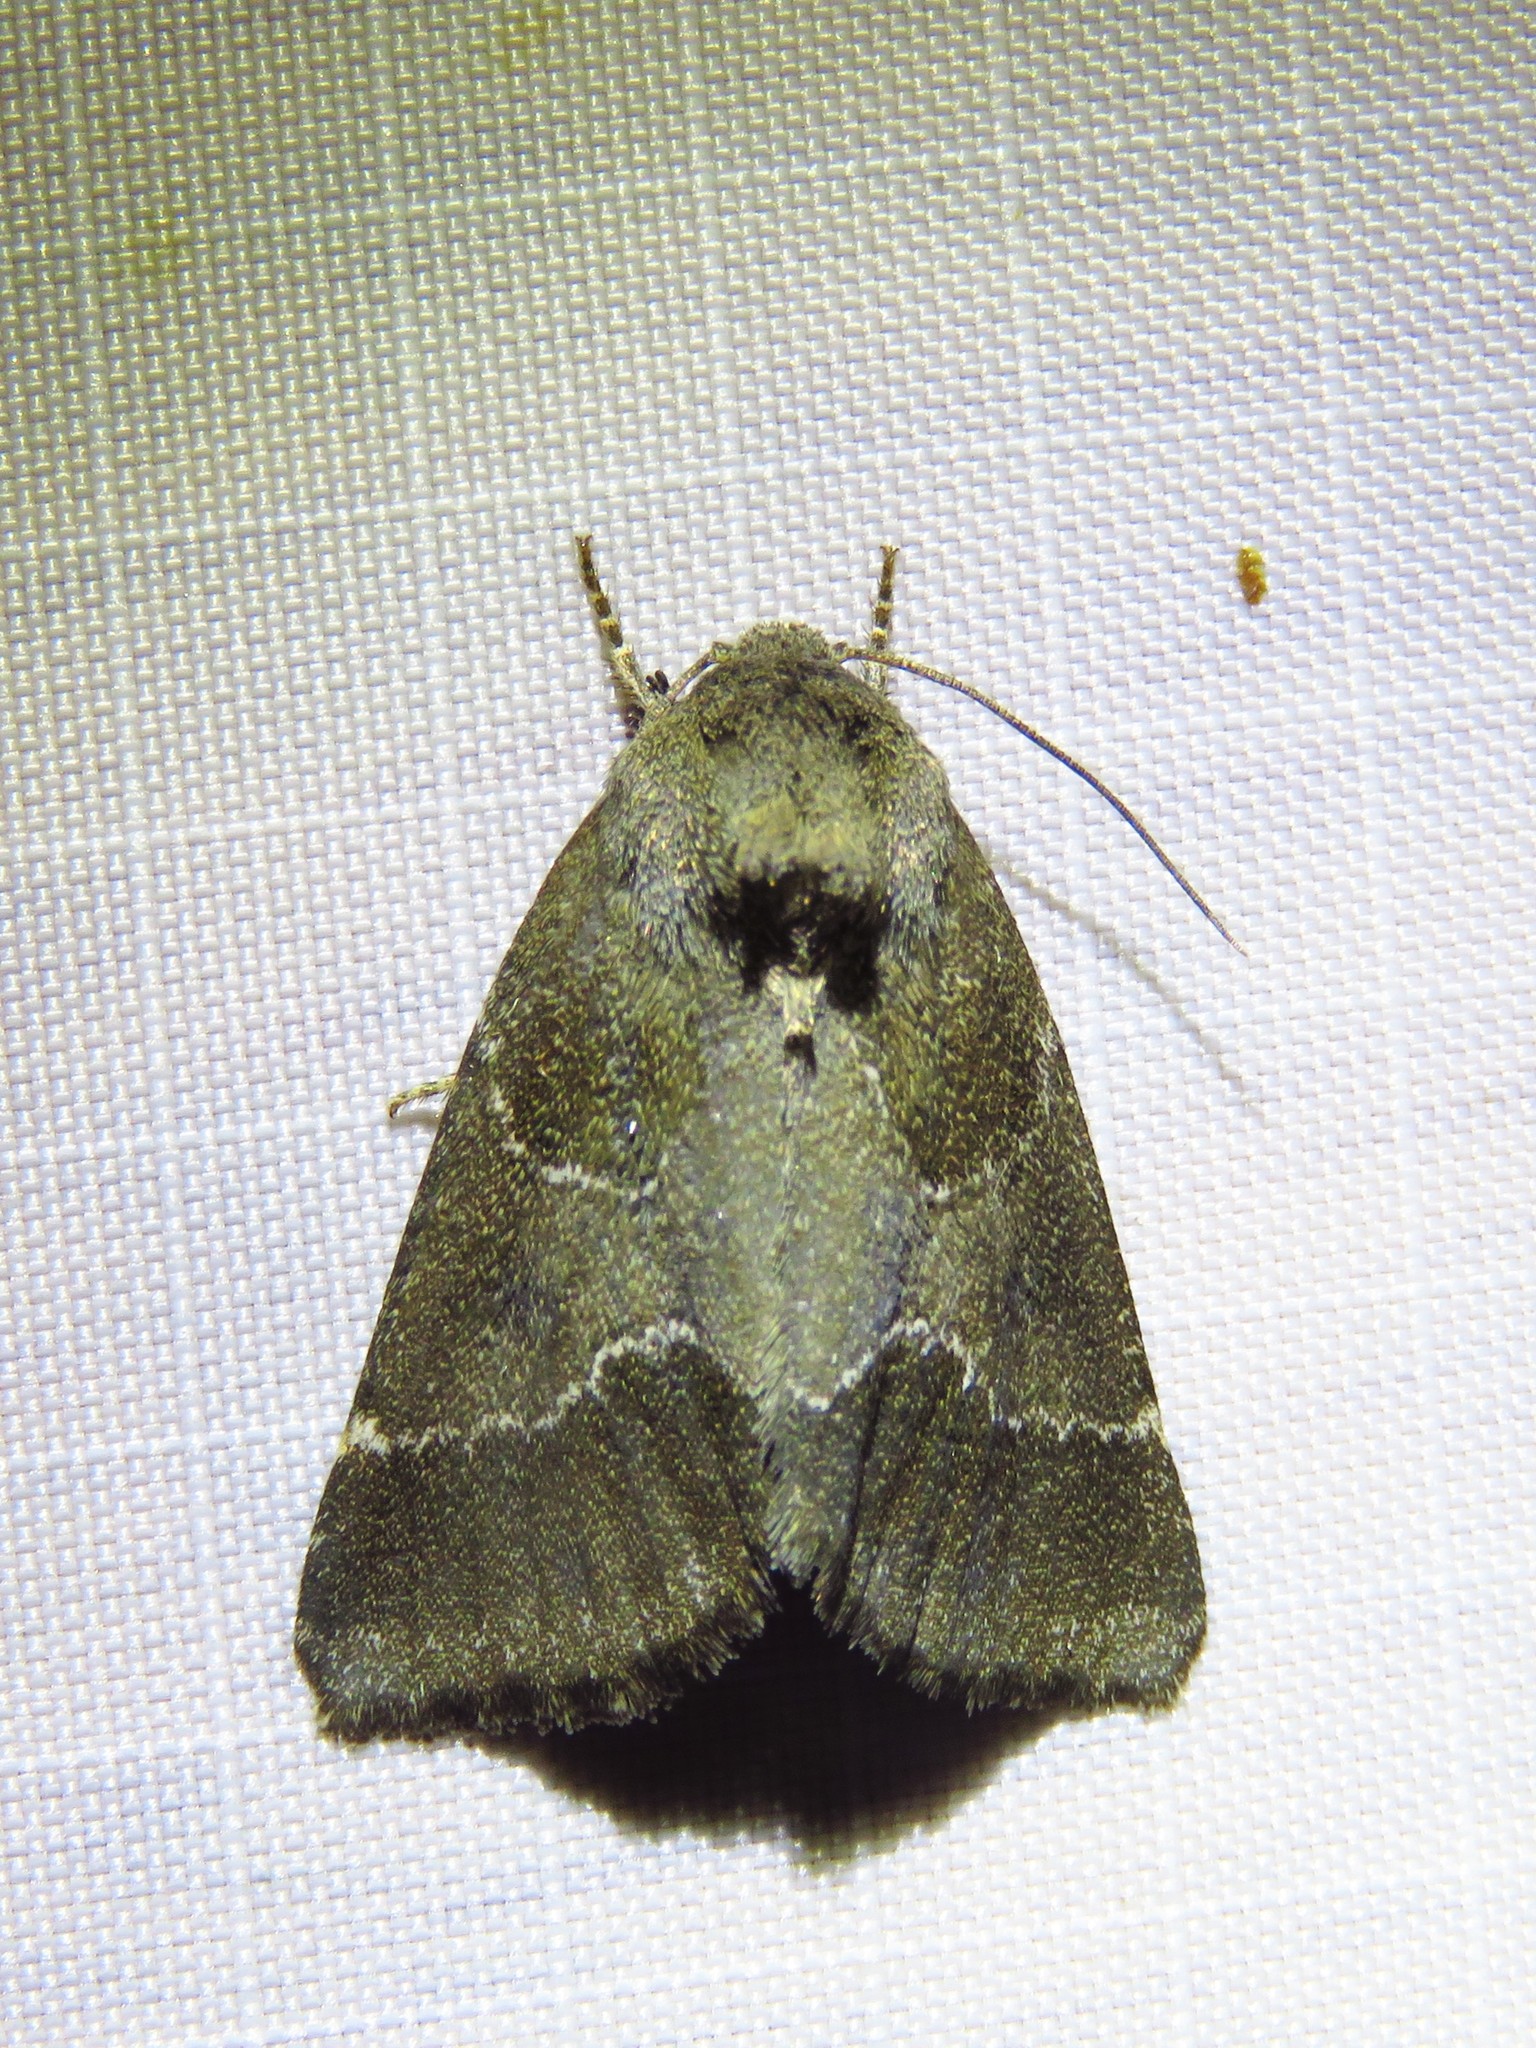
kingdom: Animalia
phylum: Arthropoda
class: Insecta
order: Lepidoptera
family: Noctuidae
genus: Schinia
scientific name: Schinia thoreaui
